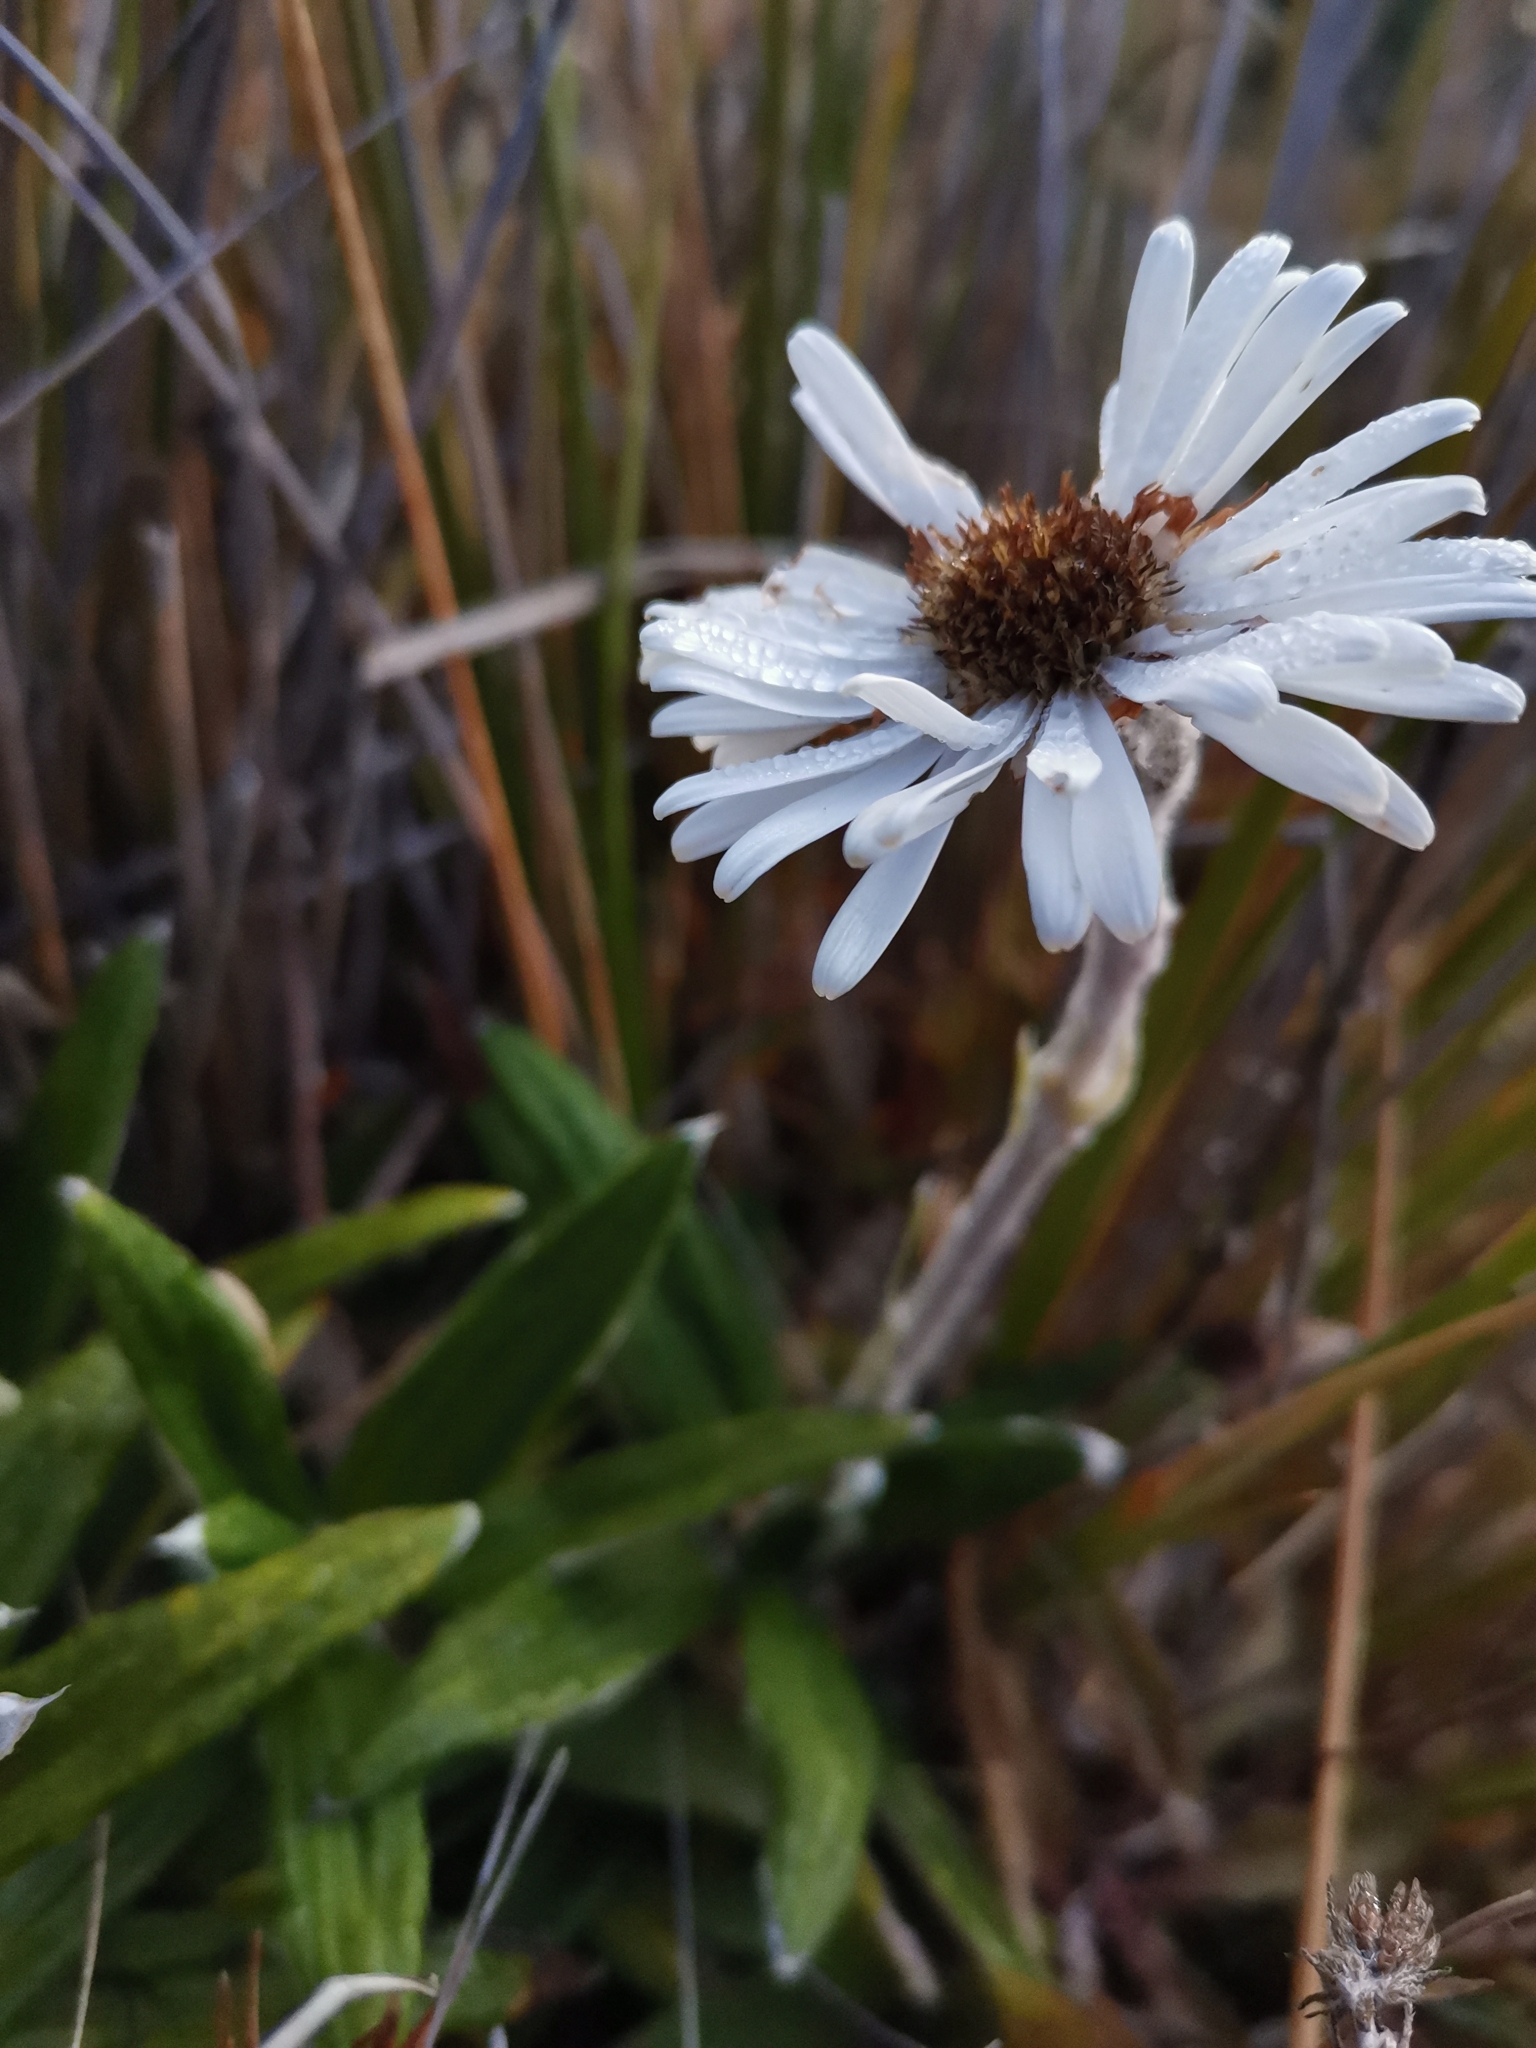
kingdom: Plantae
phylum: Tracheophyta
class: Magnoliopsida
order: Asterales
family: Asteraceae
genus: Celmisia
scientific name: Celmisia spectabilis
